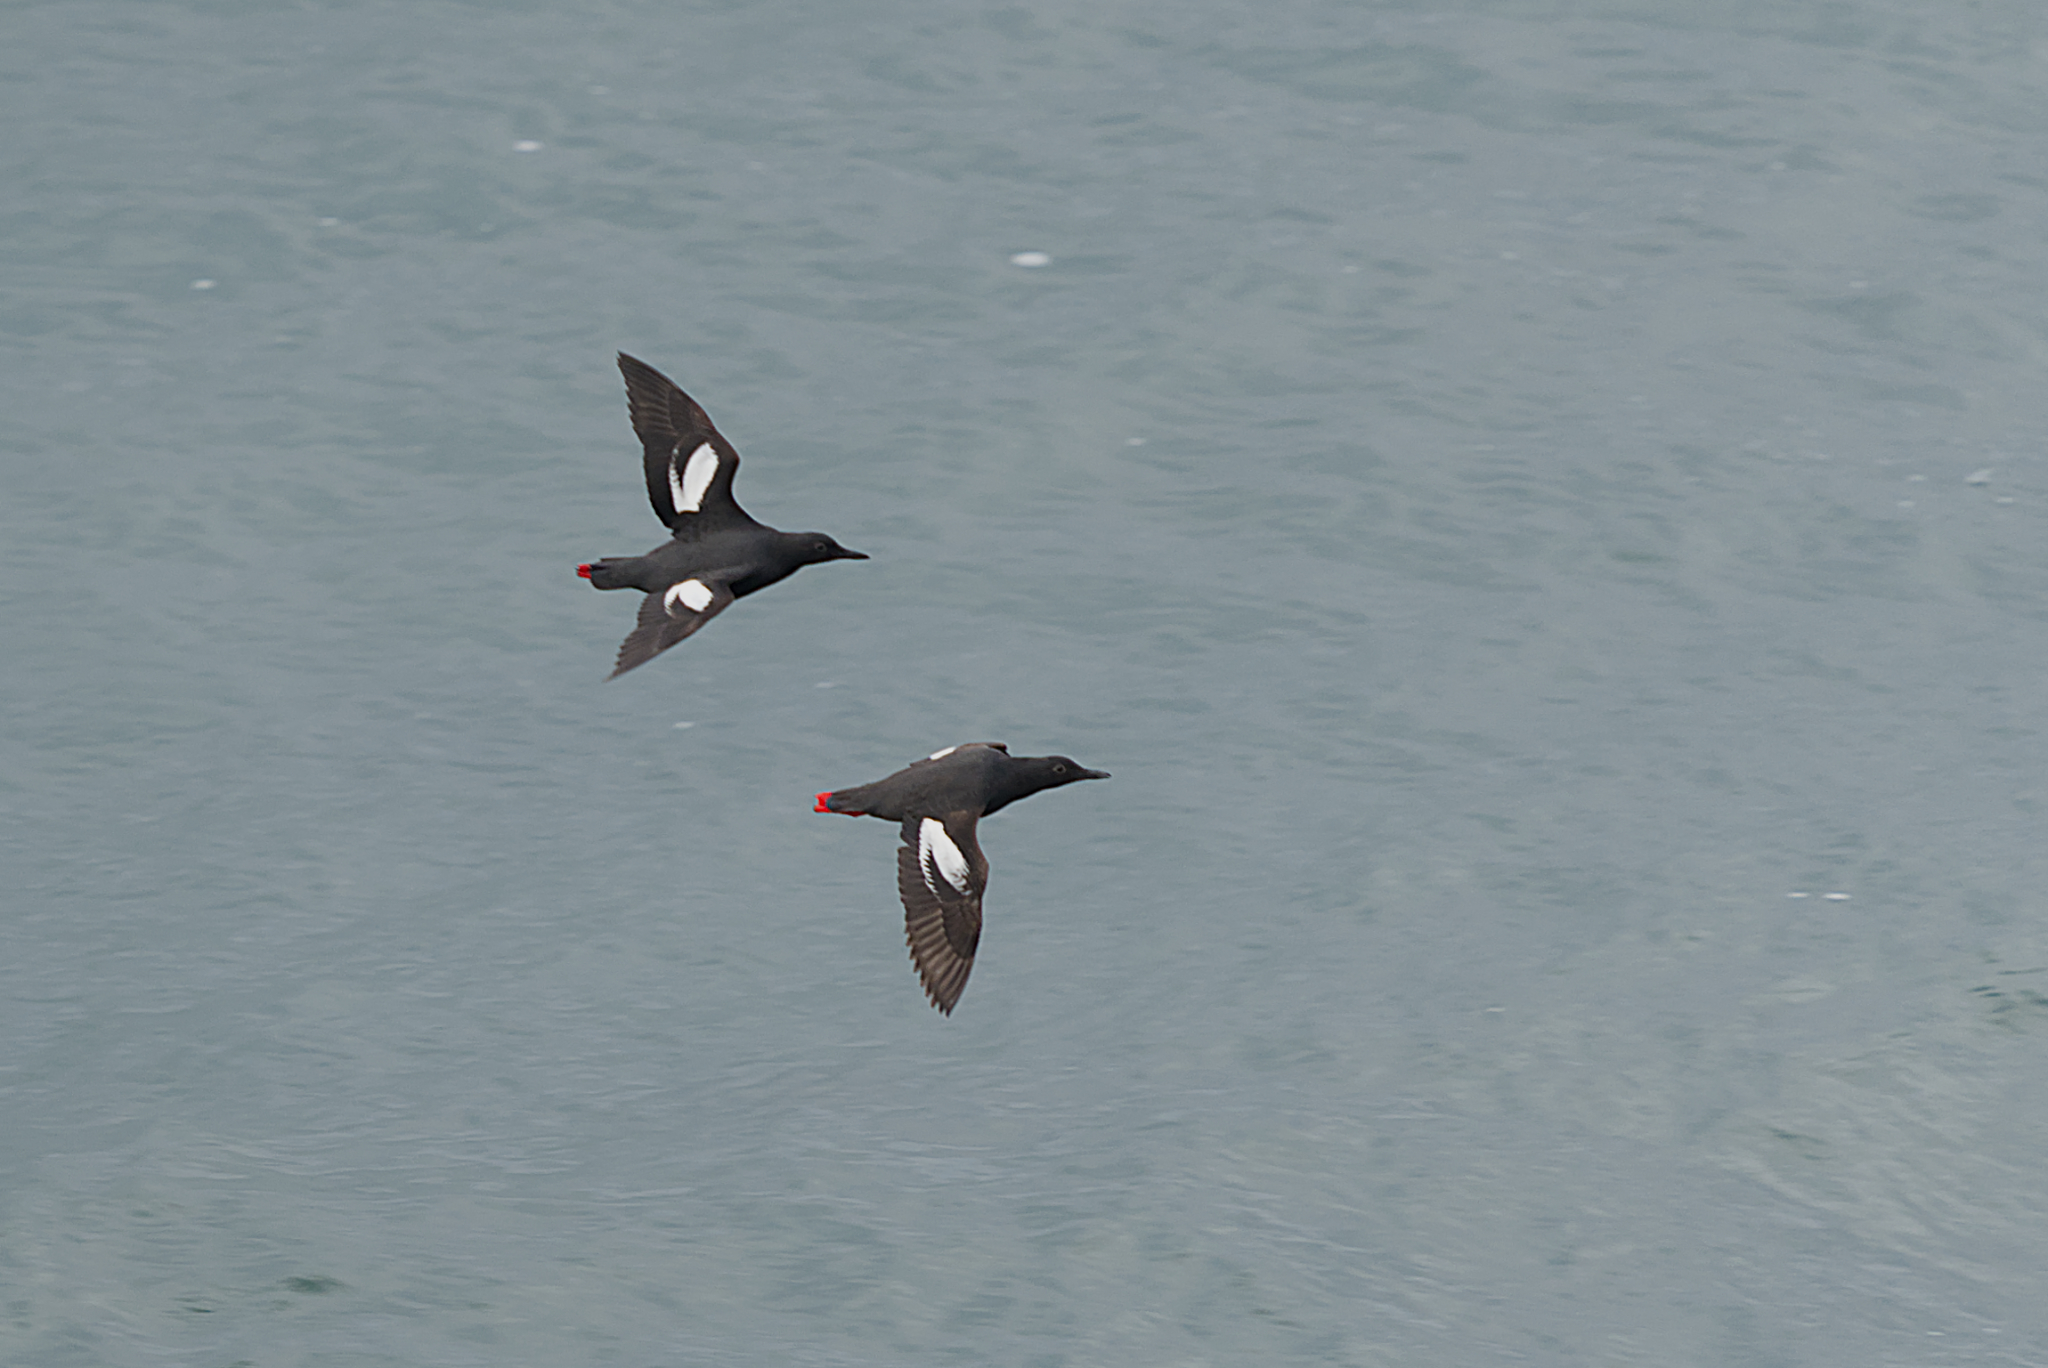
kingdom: Animalia
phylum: Chordata
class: Aves
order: Charadriiformes
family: Alcidae
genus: Cepphus
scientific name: Cepphus columba
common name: Pigeon guillemot
